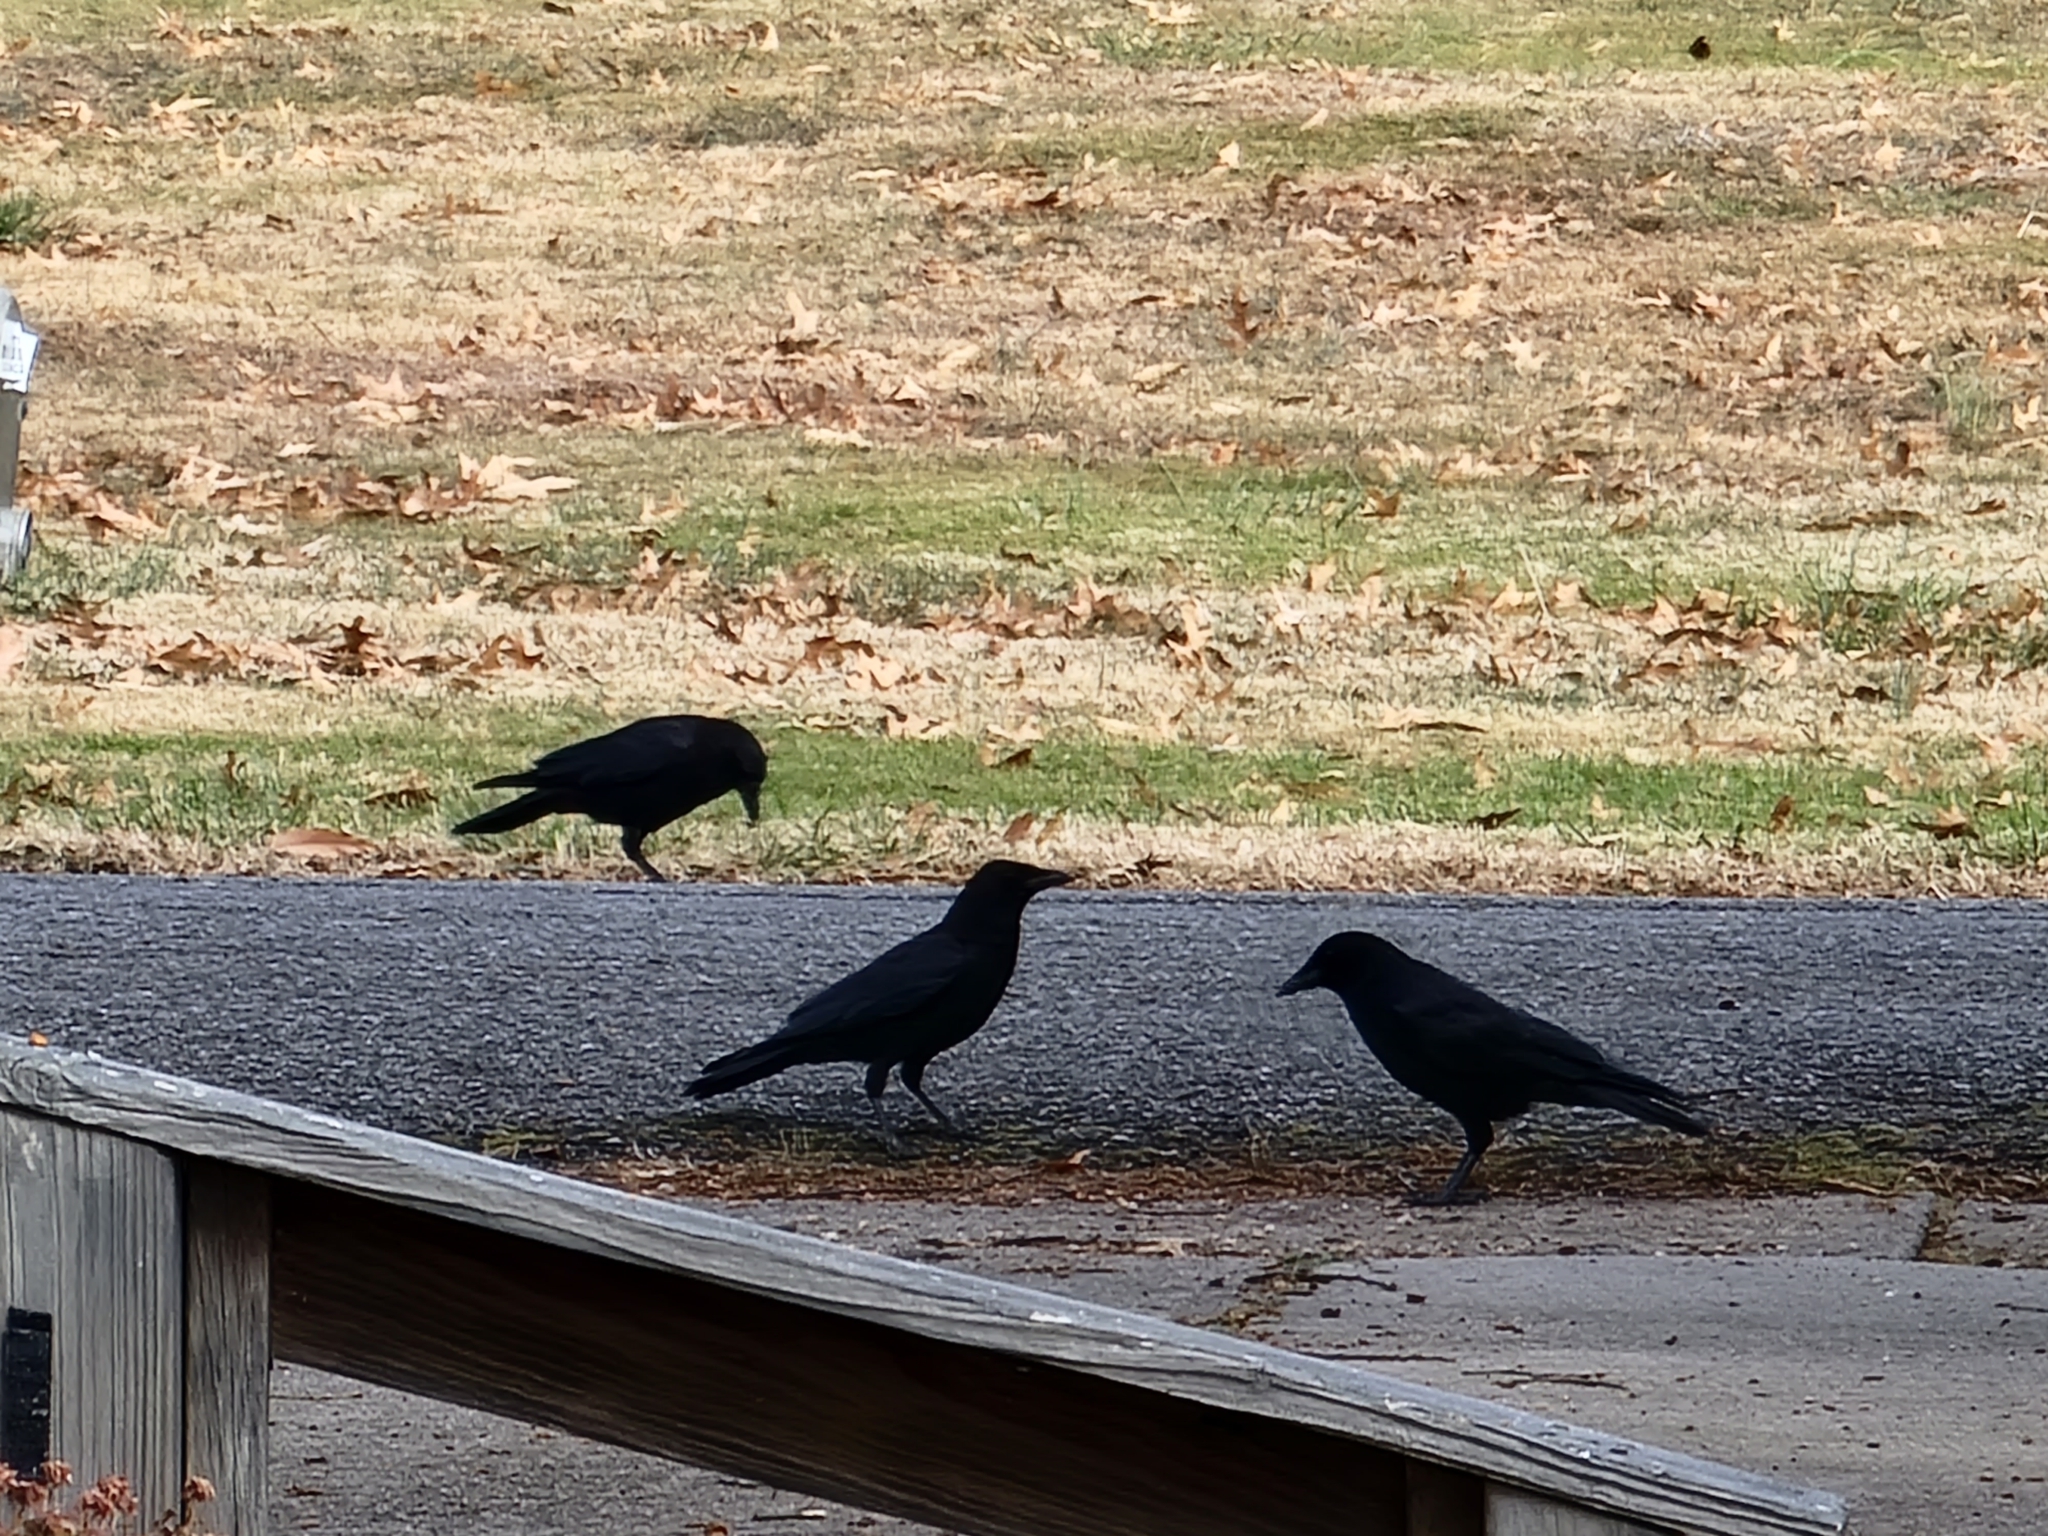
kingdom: Animalia
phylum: Chordata
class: Aves
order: Passeriformes
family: Corvidae
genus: Corvus
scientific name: Corvus brachyrhynchos
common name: American crow
